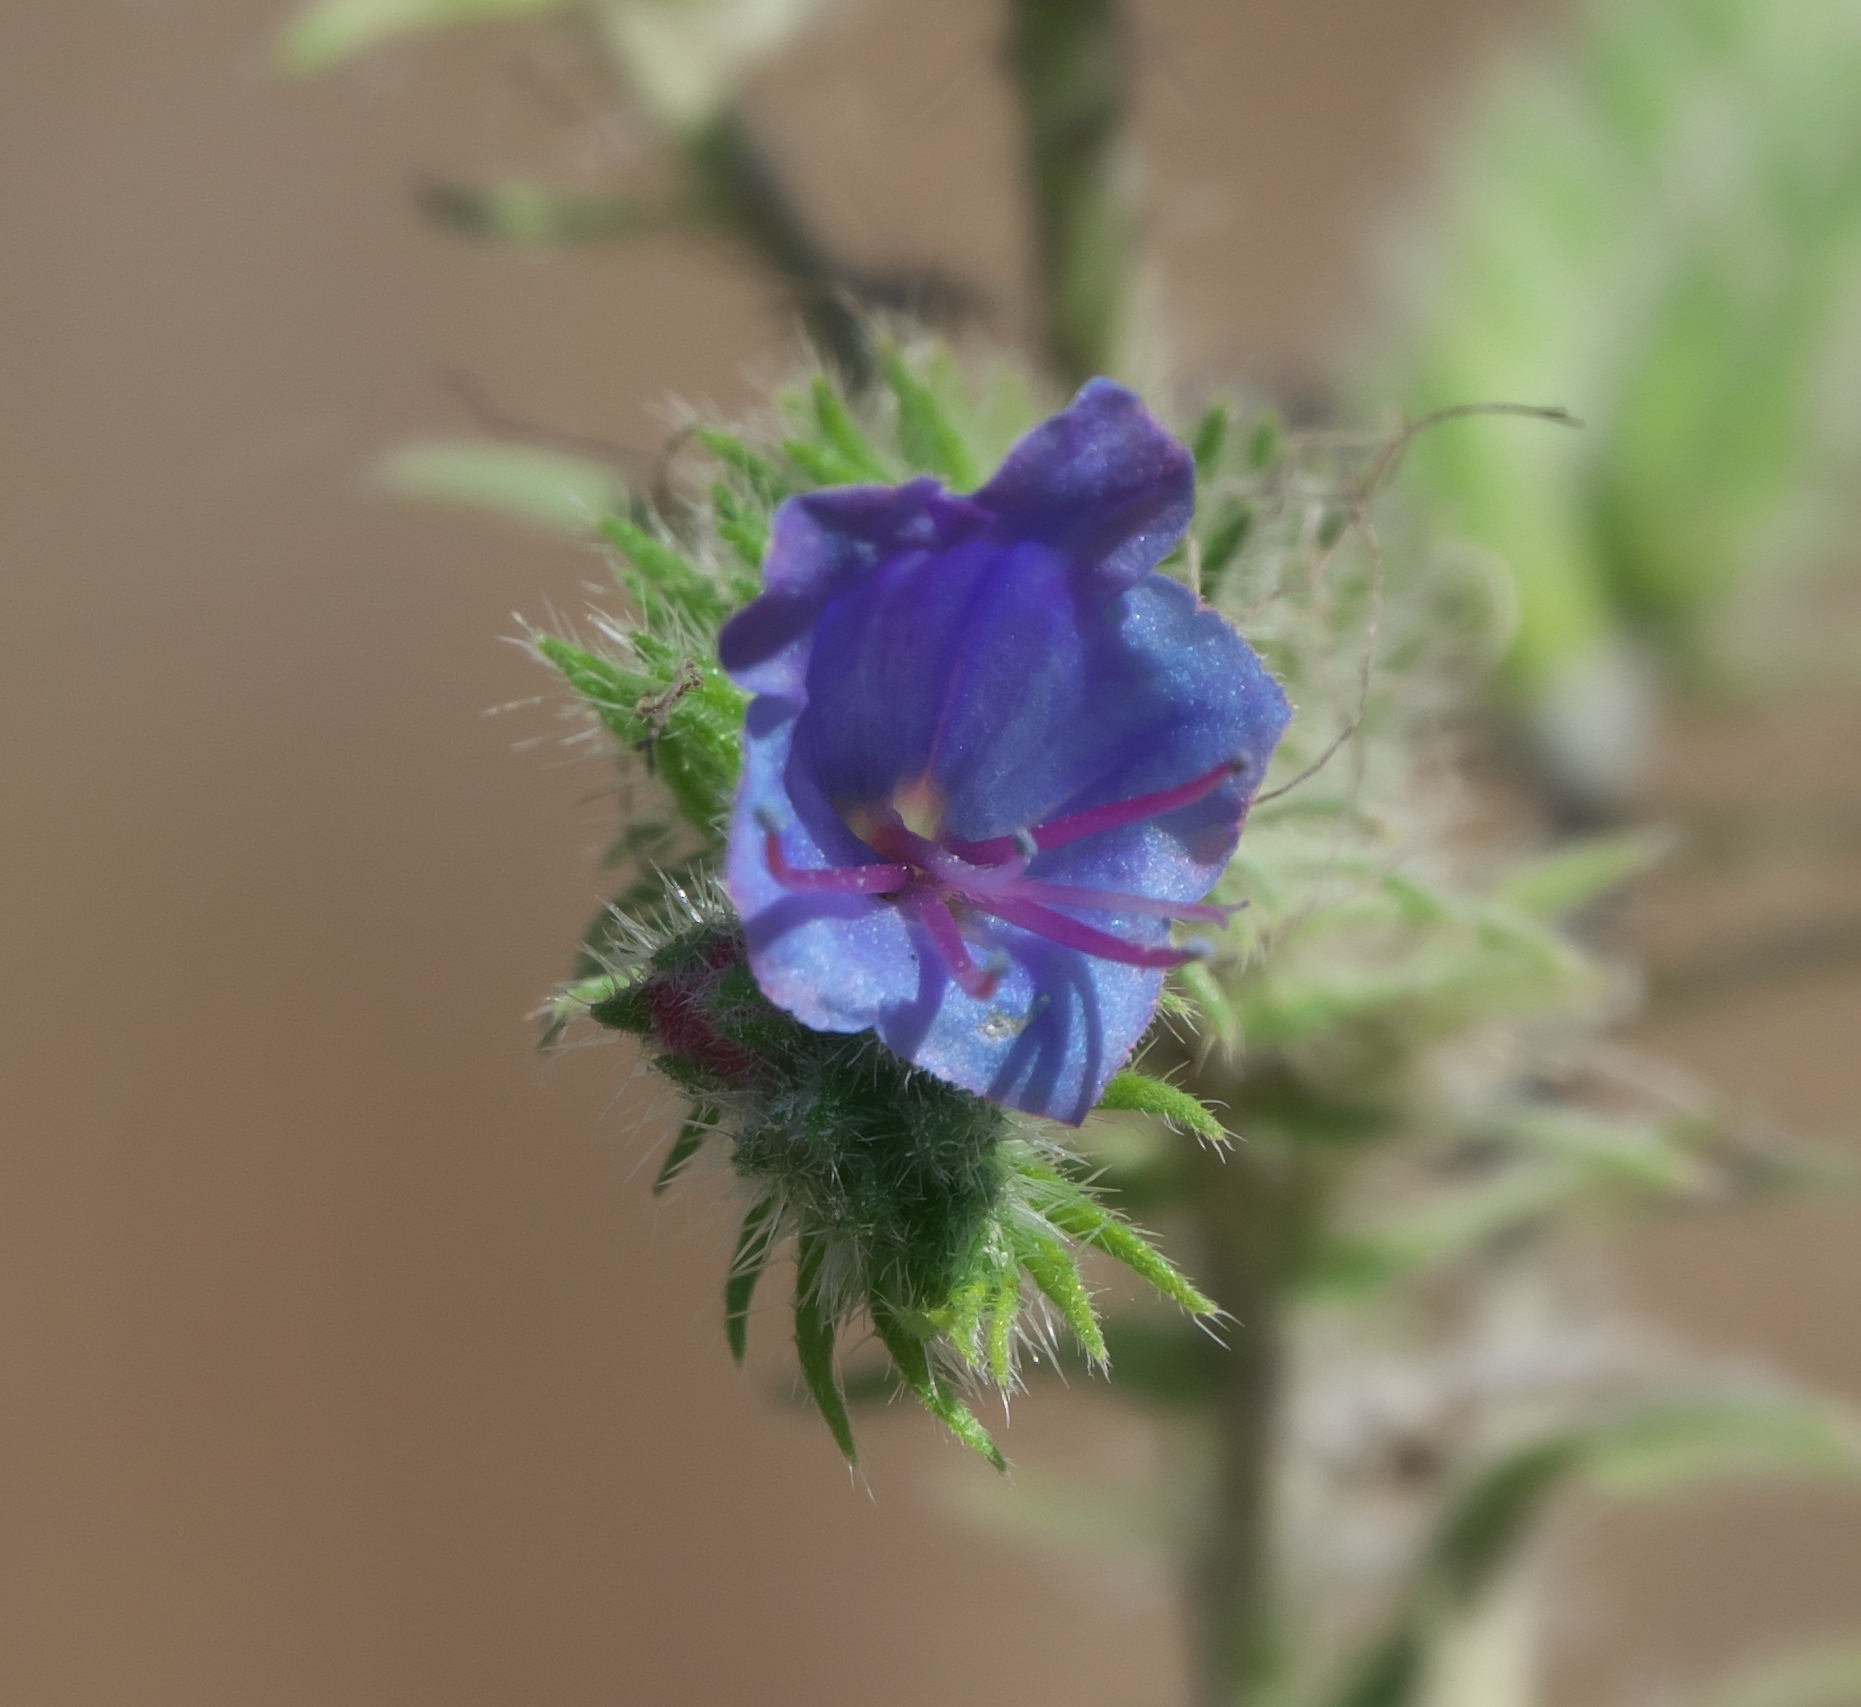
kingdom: Plantae
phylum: Tracheophyta
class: Magnoliopsida
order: Boraginales
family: Boraginaceae
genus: Echium
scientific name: Echium vulgare
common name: Common viper's bugloss
